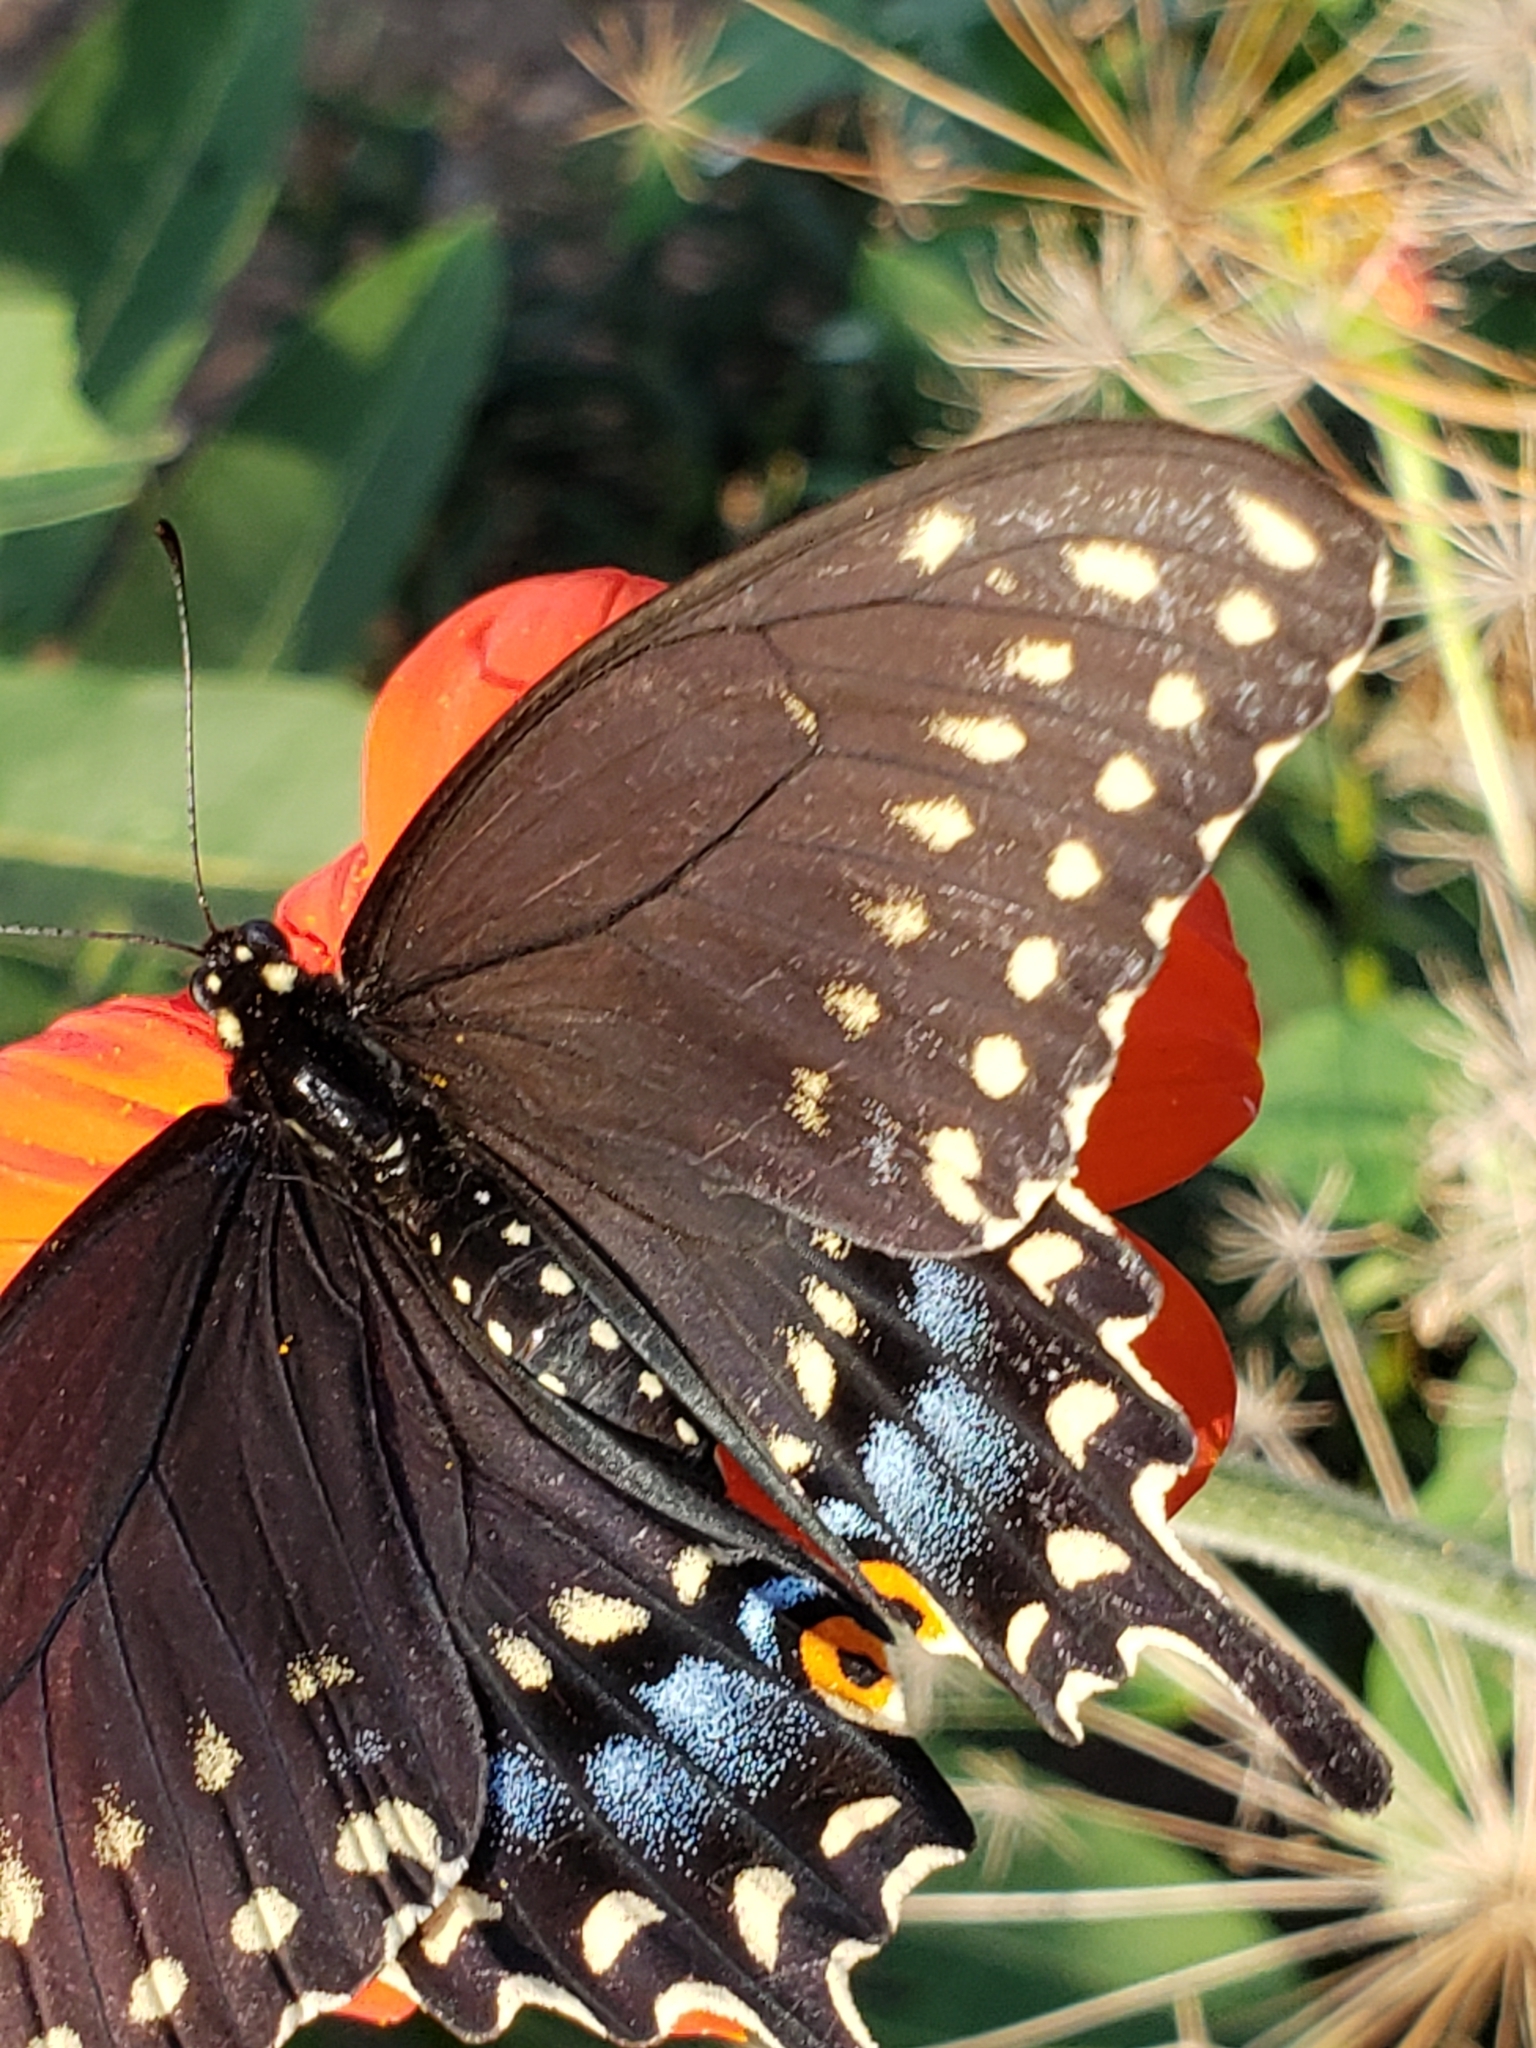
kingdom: Animalia
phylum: Arthropoda
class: Insecta
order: Lepidoptera
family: Papilionidae
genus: Papilio
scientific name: Papilio polyxenes
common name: Black swallowtail
